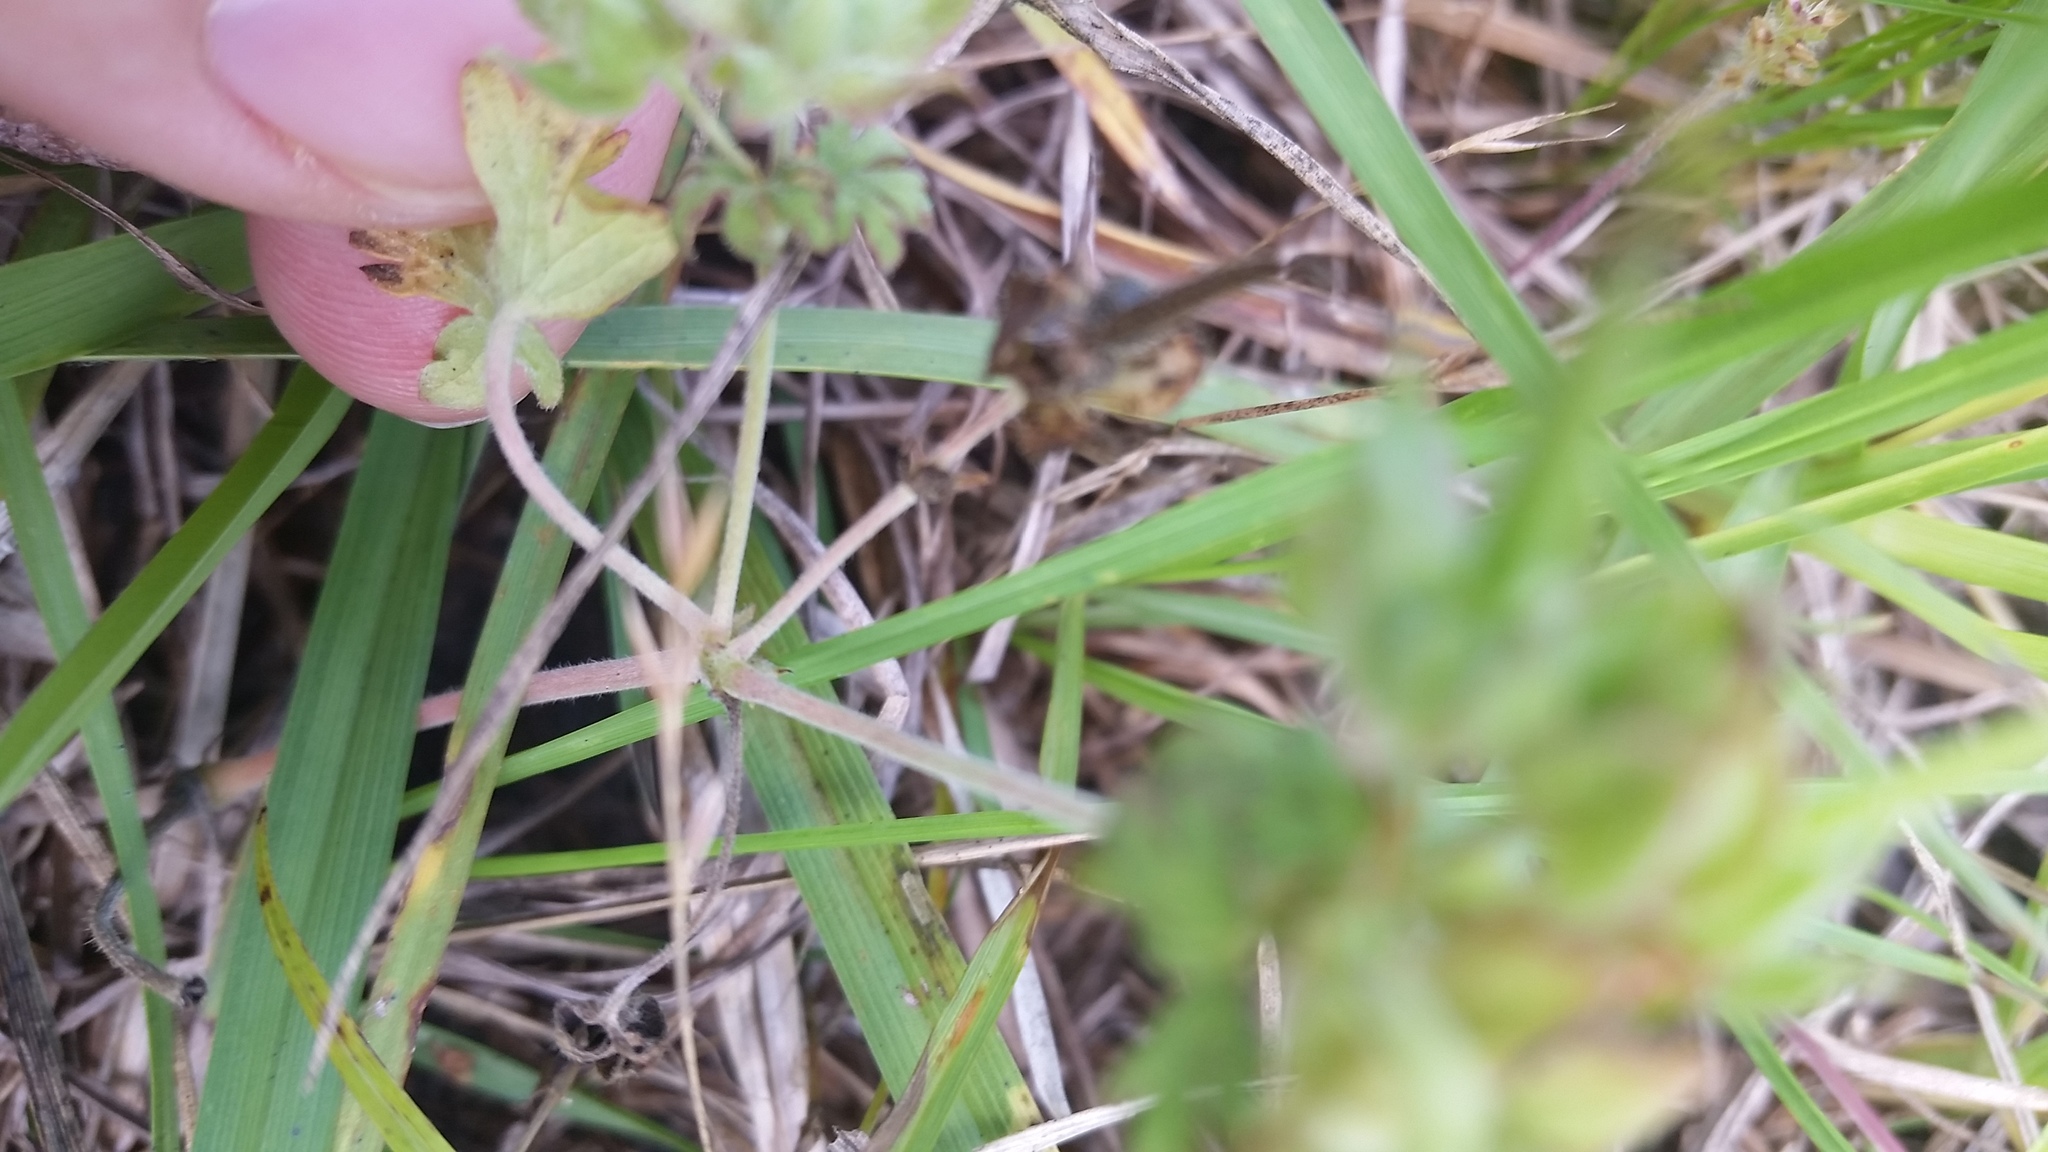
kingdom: Plantae
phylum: Tracheophyta
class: Magnoliopsida
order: Geraniales
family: Geraniaceae
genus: Geranium
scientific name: Geranium carolinianum
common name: Carolina crane's-bill
